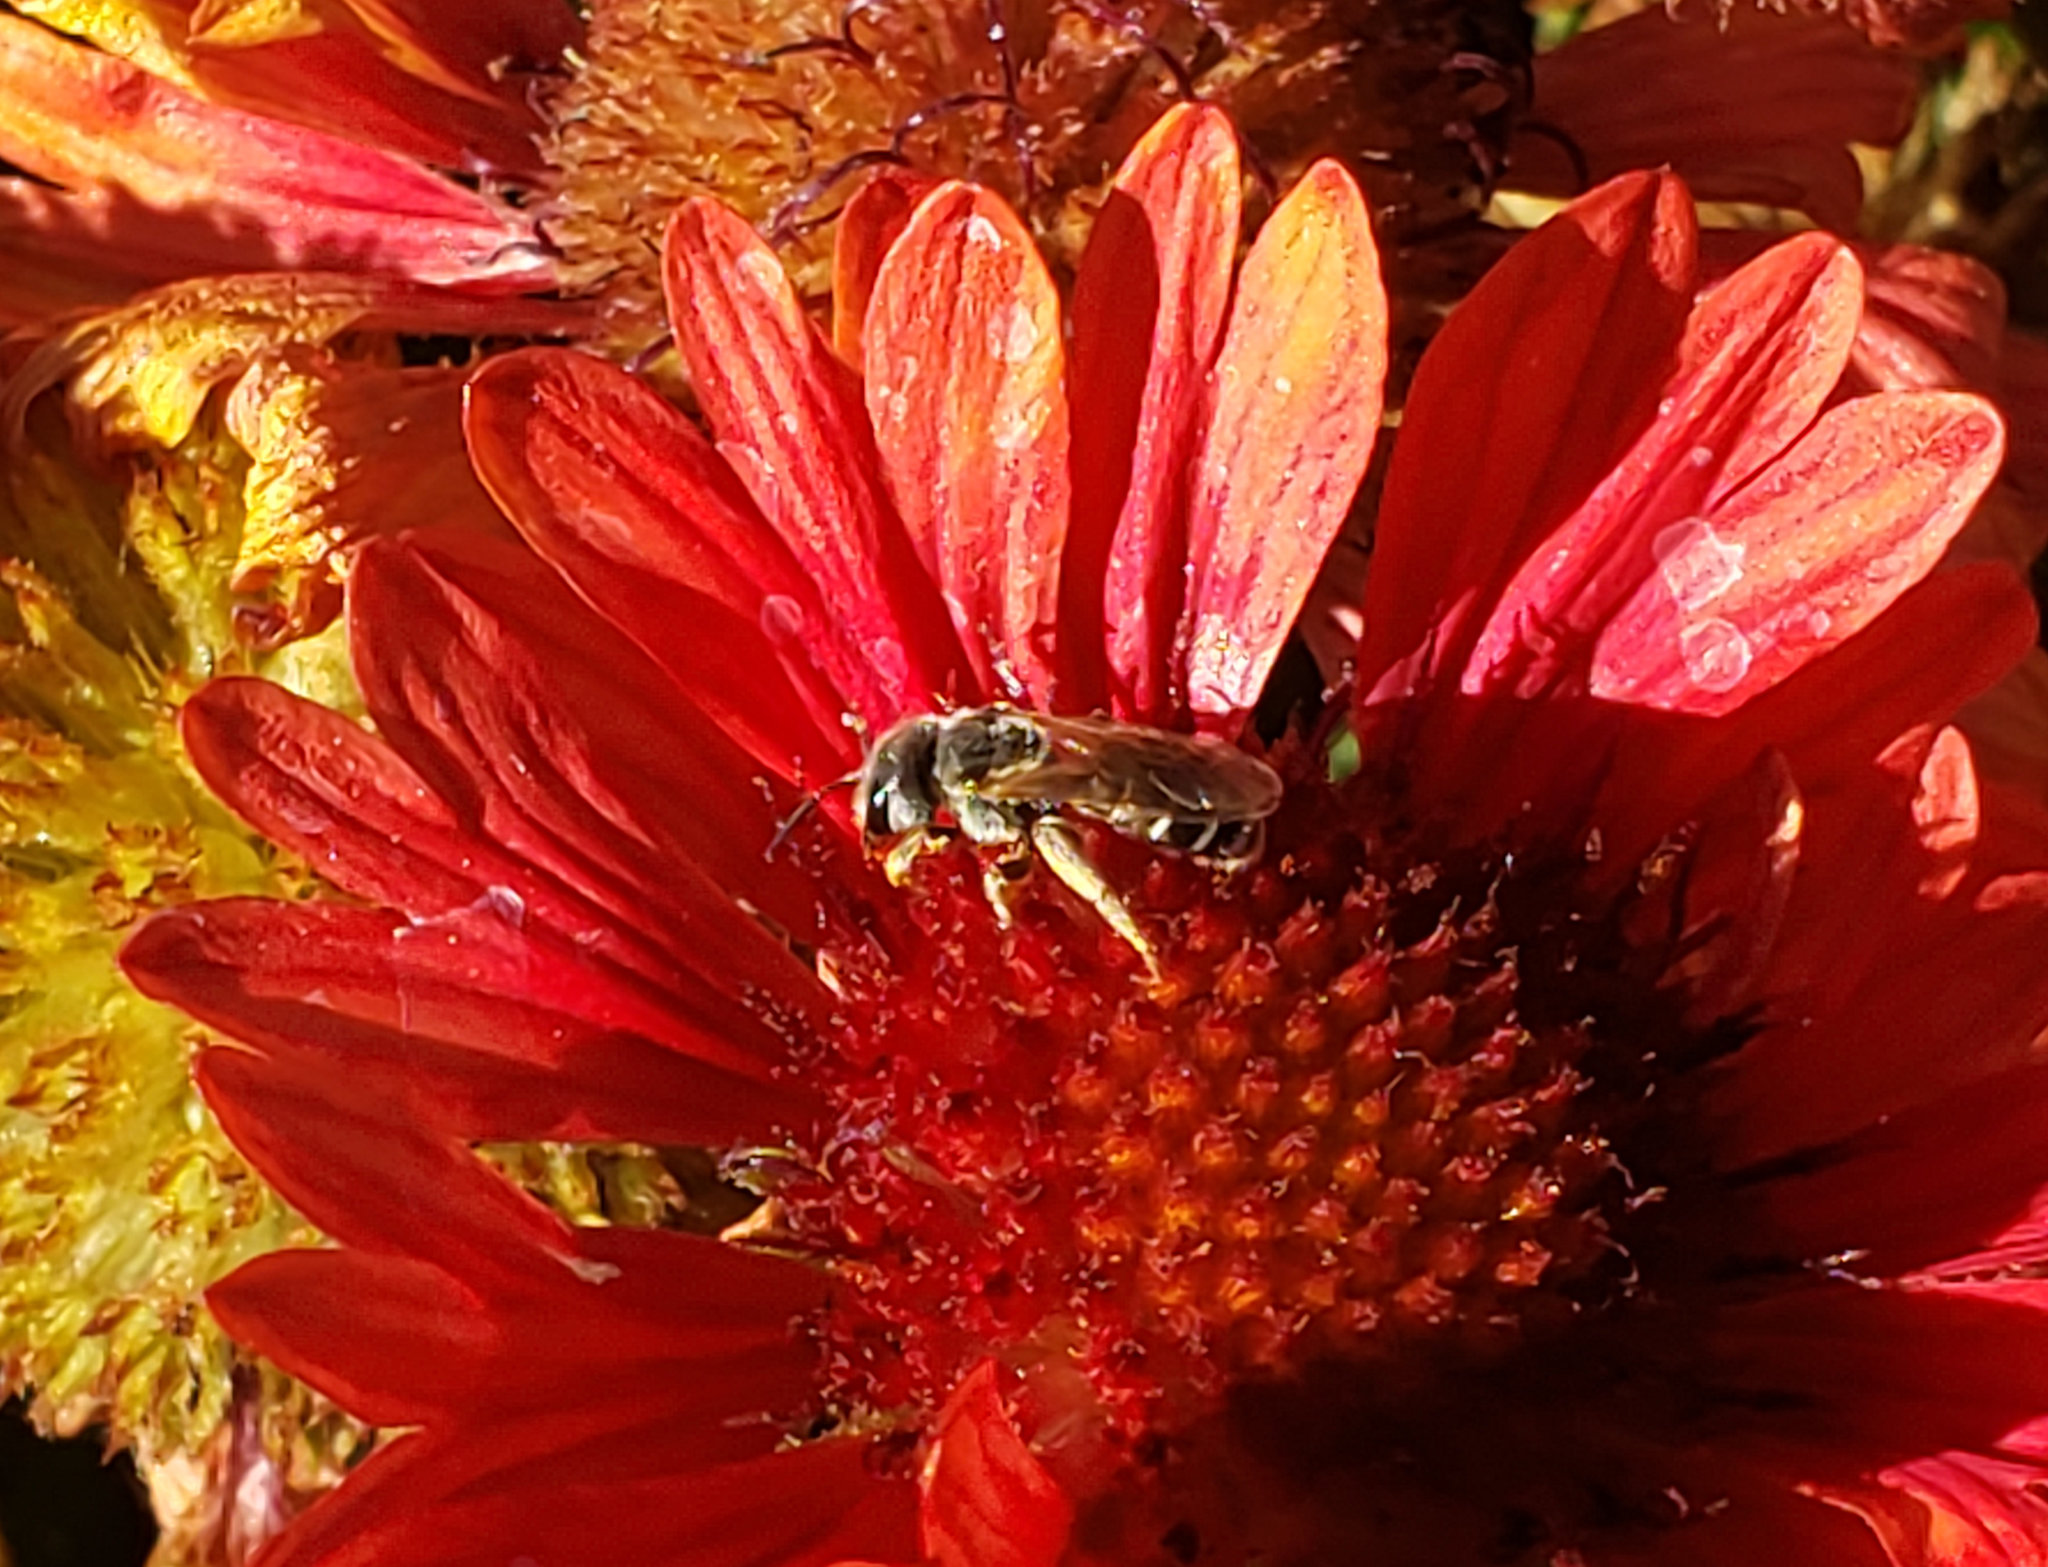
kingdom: Animalia
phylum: Arthropoda
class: Insecta
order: Hymenoptera
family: Halictidae
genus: Halictus
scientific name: Halictus ligatus
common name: Ligated furrow bee
